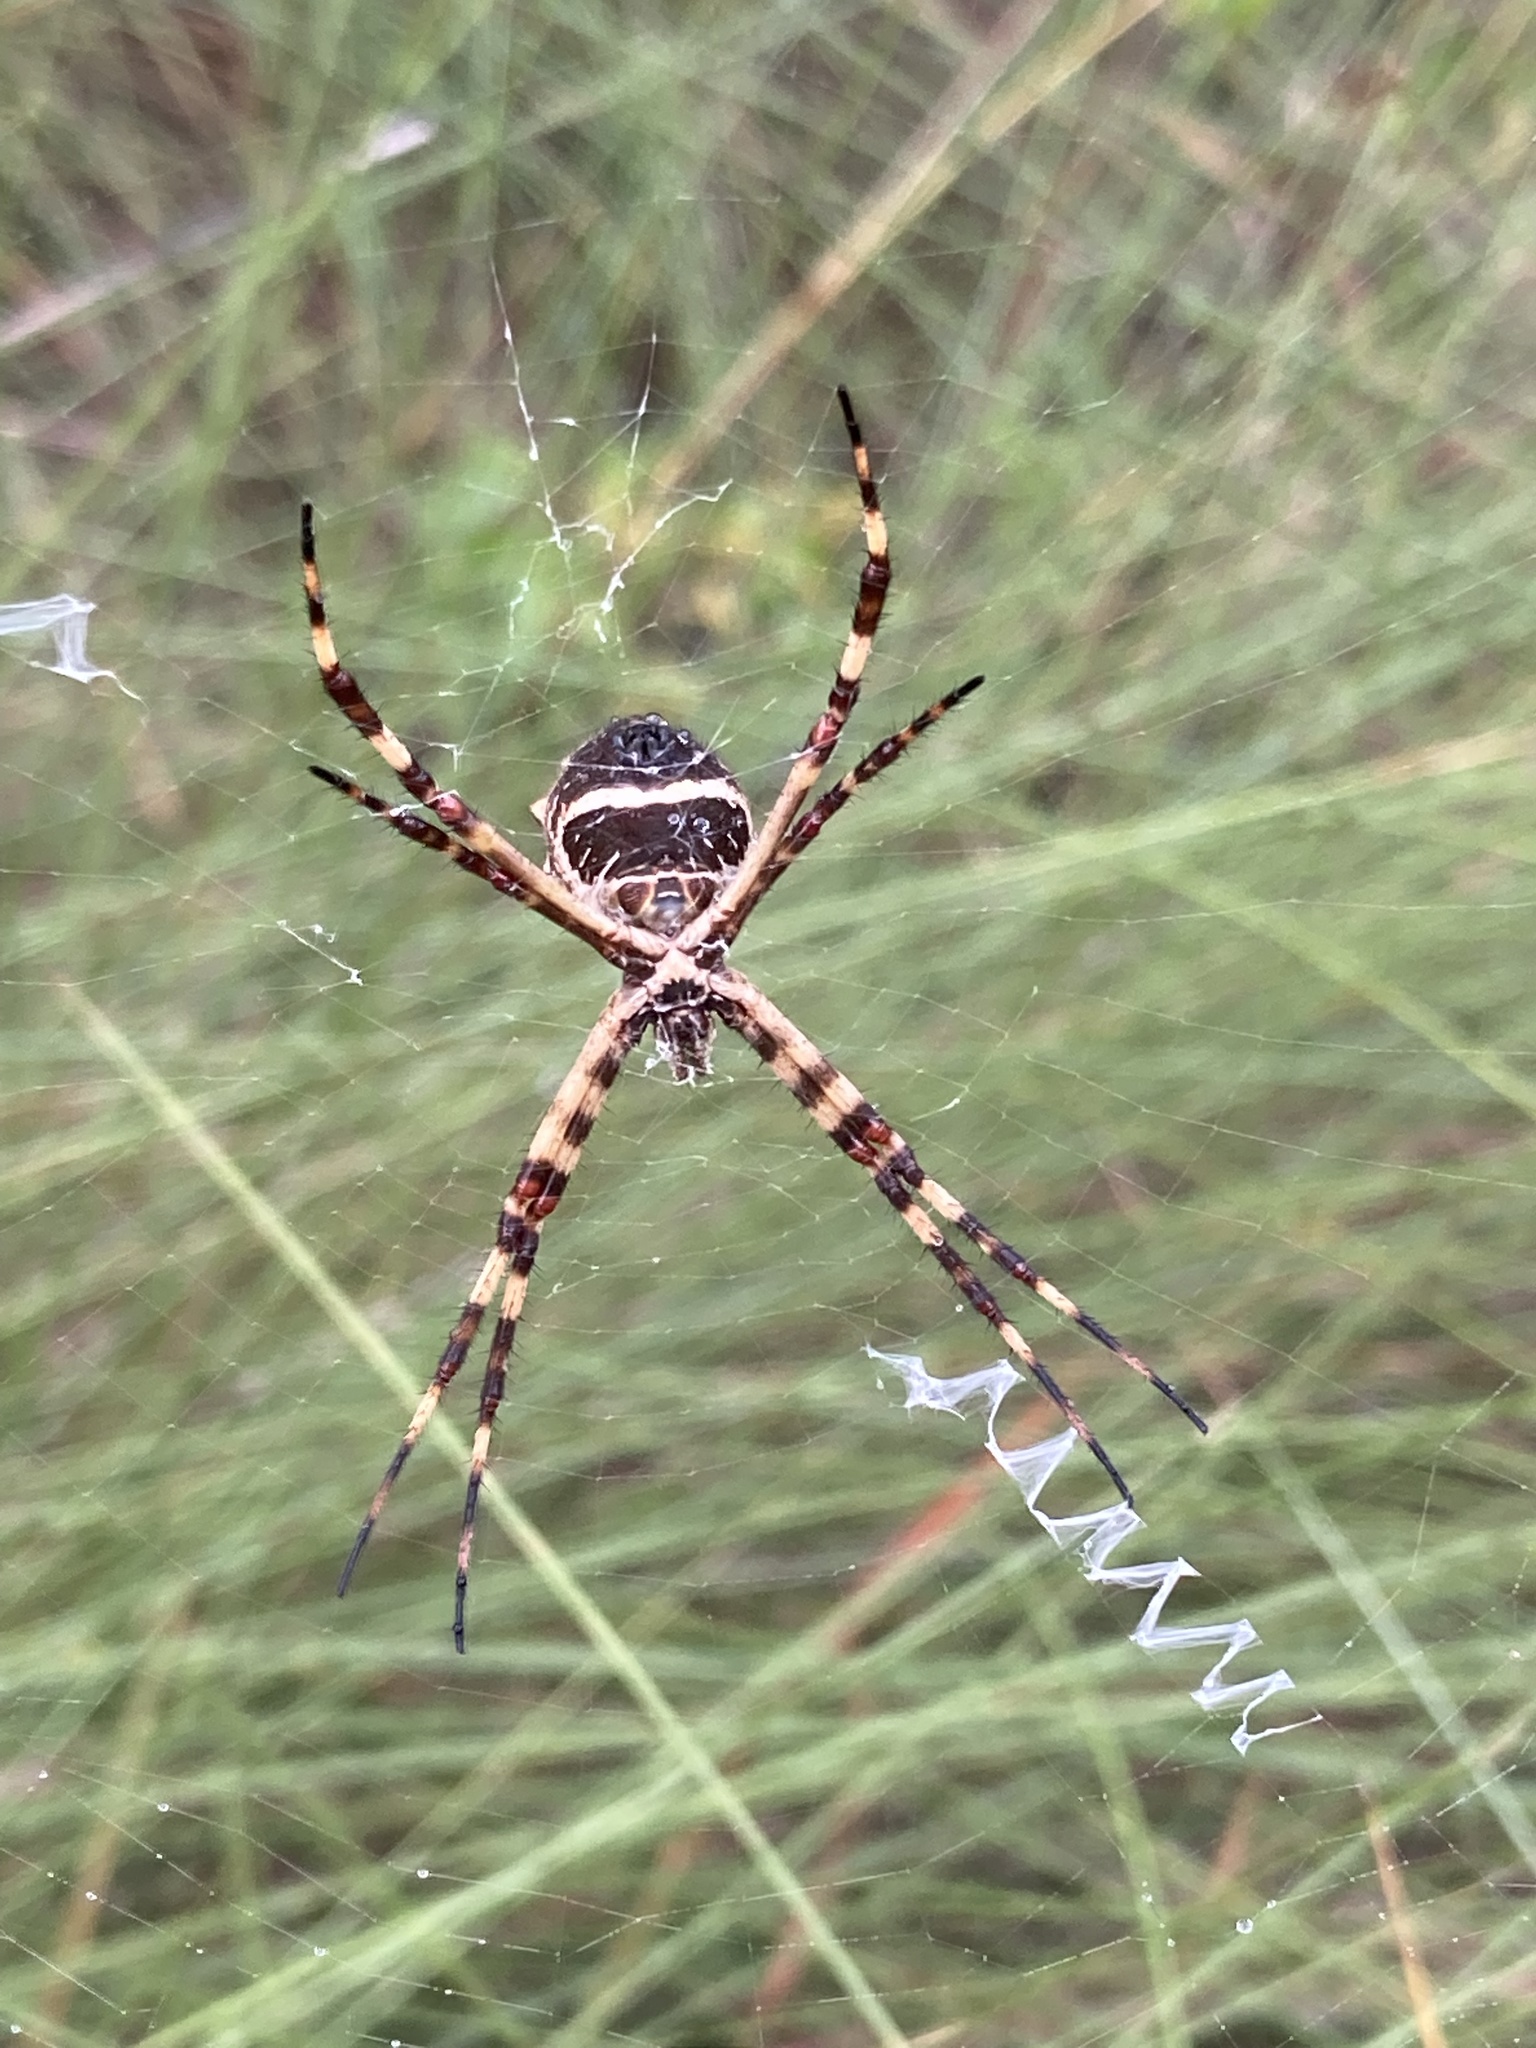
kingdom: Animalia
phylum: Arthropoda
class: Arachnida
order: Araneae
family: Araneidae
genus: Argiope
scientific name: Argiope argentata
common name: Orb weavers
